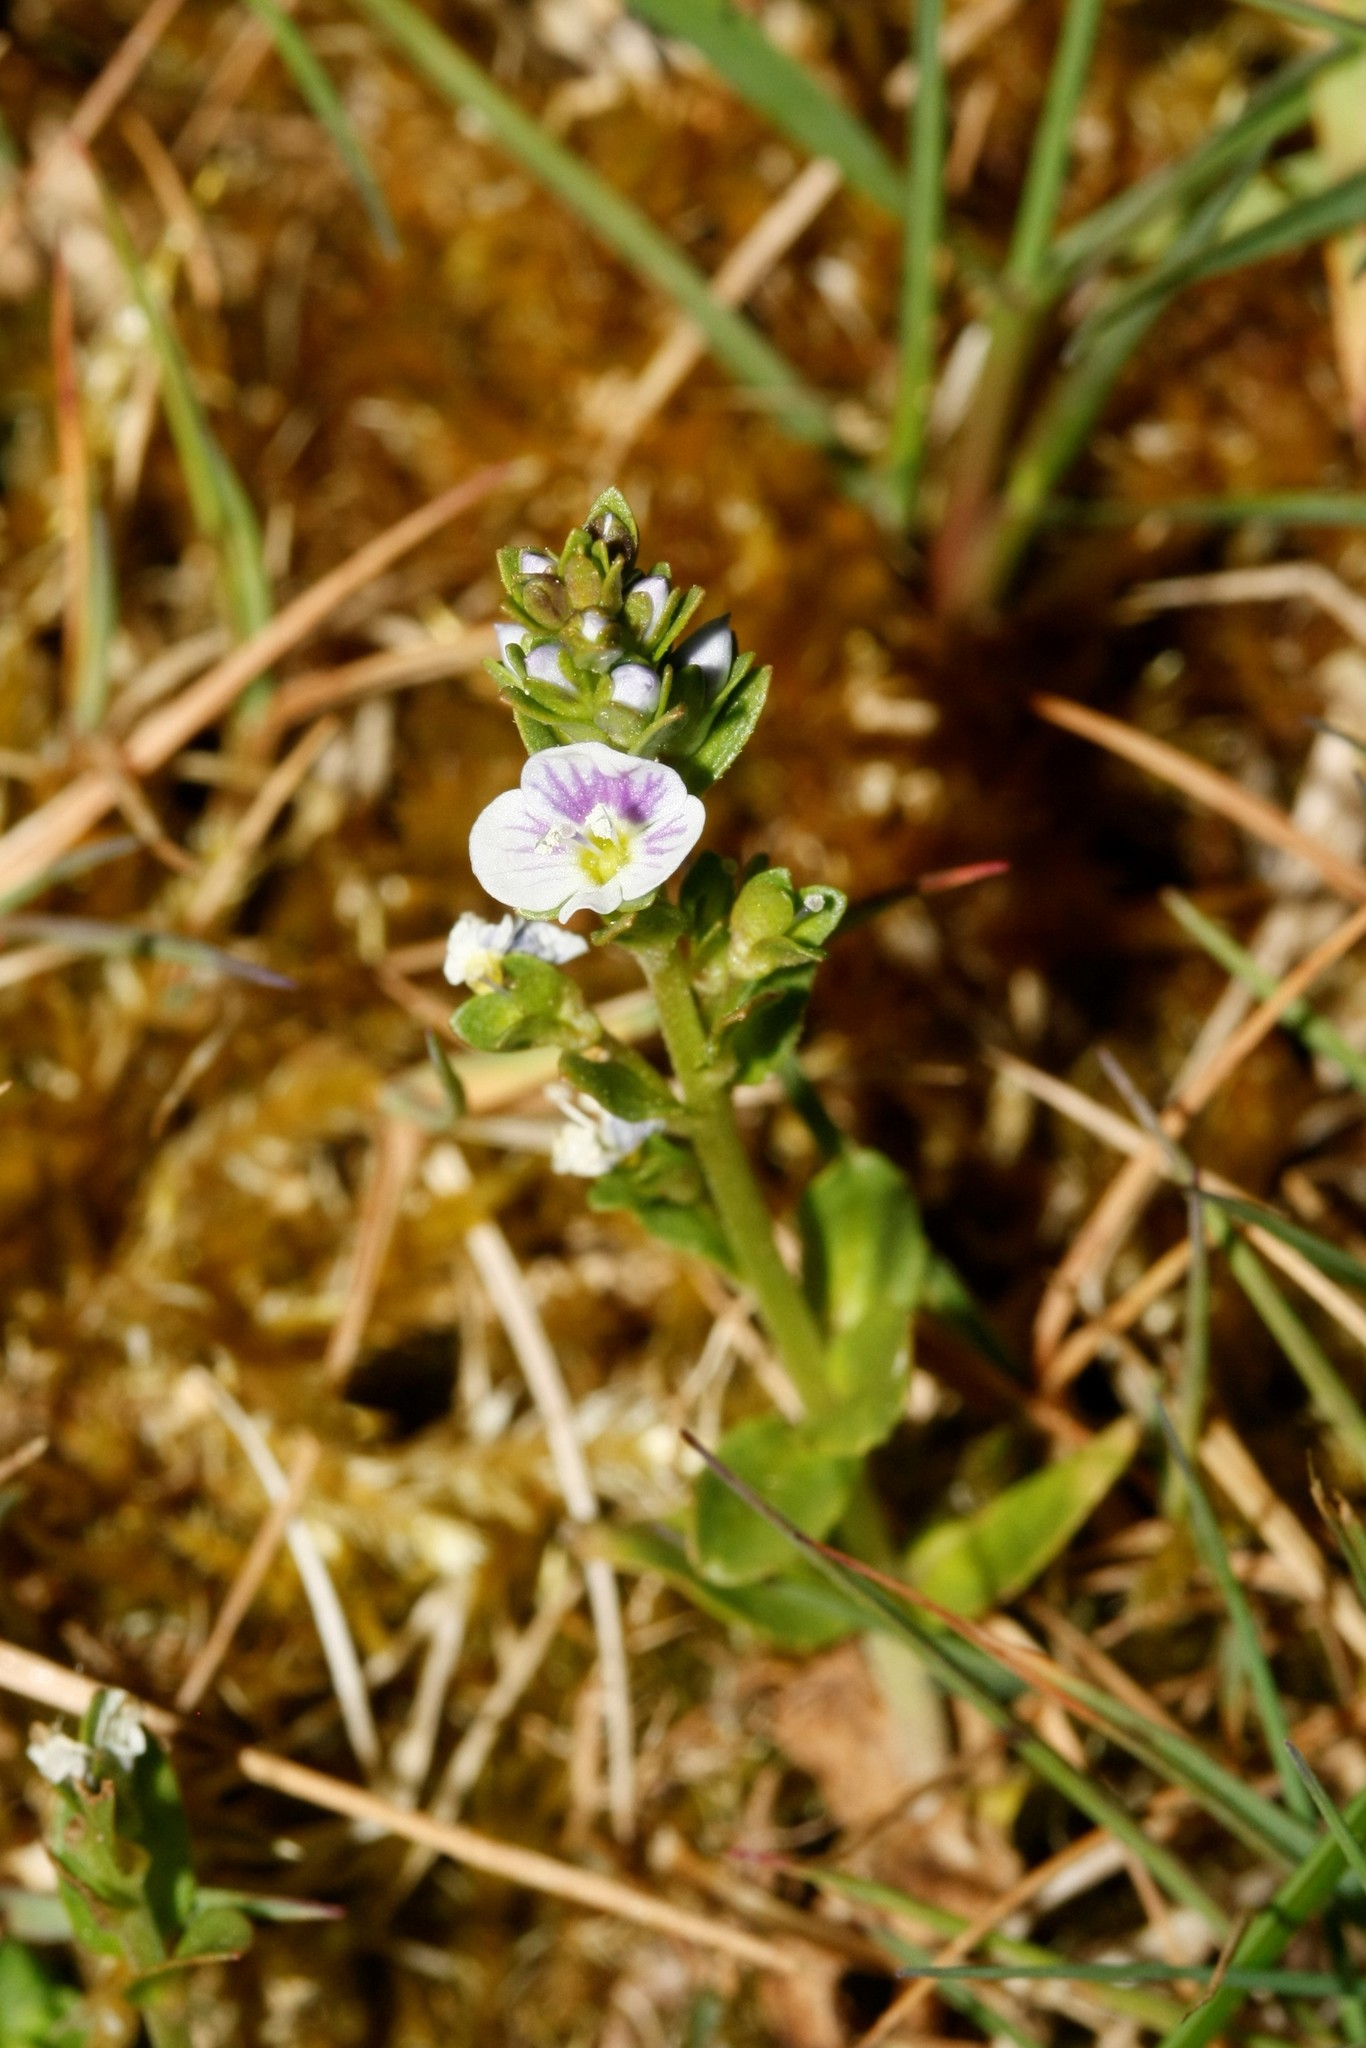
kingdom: Plantae
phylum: Tracheophyta
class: Magnoliopsida
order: Lamiales
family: Plantaginaceae
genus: Veronica
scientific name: Veronica serpyllifolia
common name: Thyme-leaved speedwell
